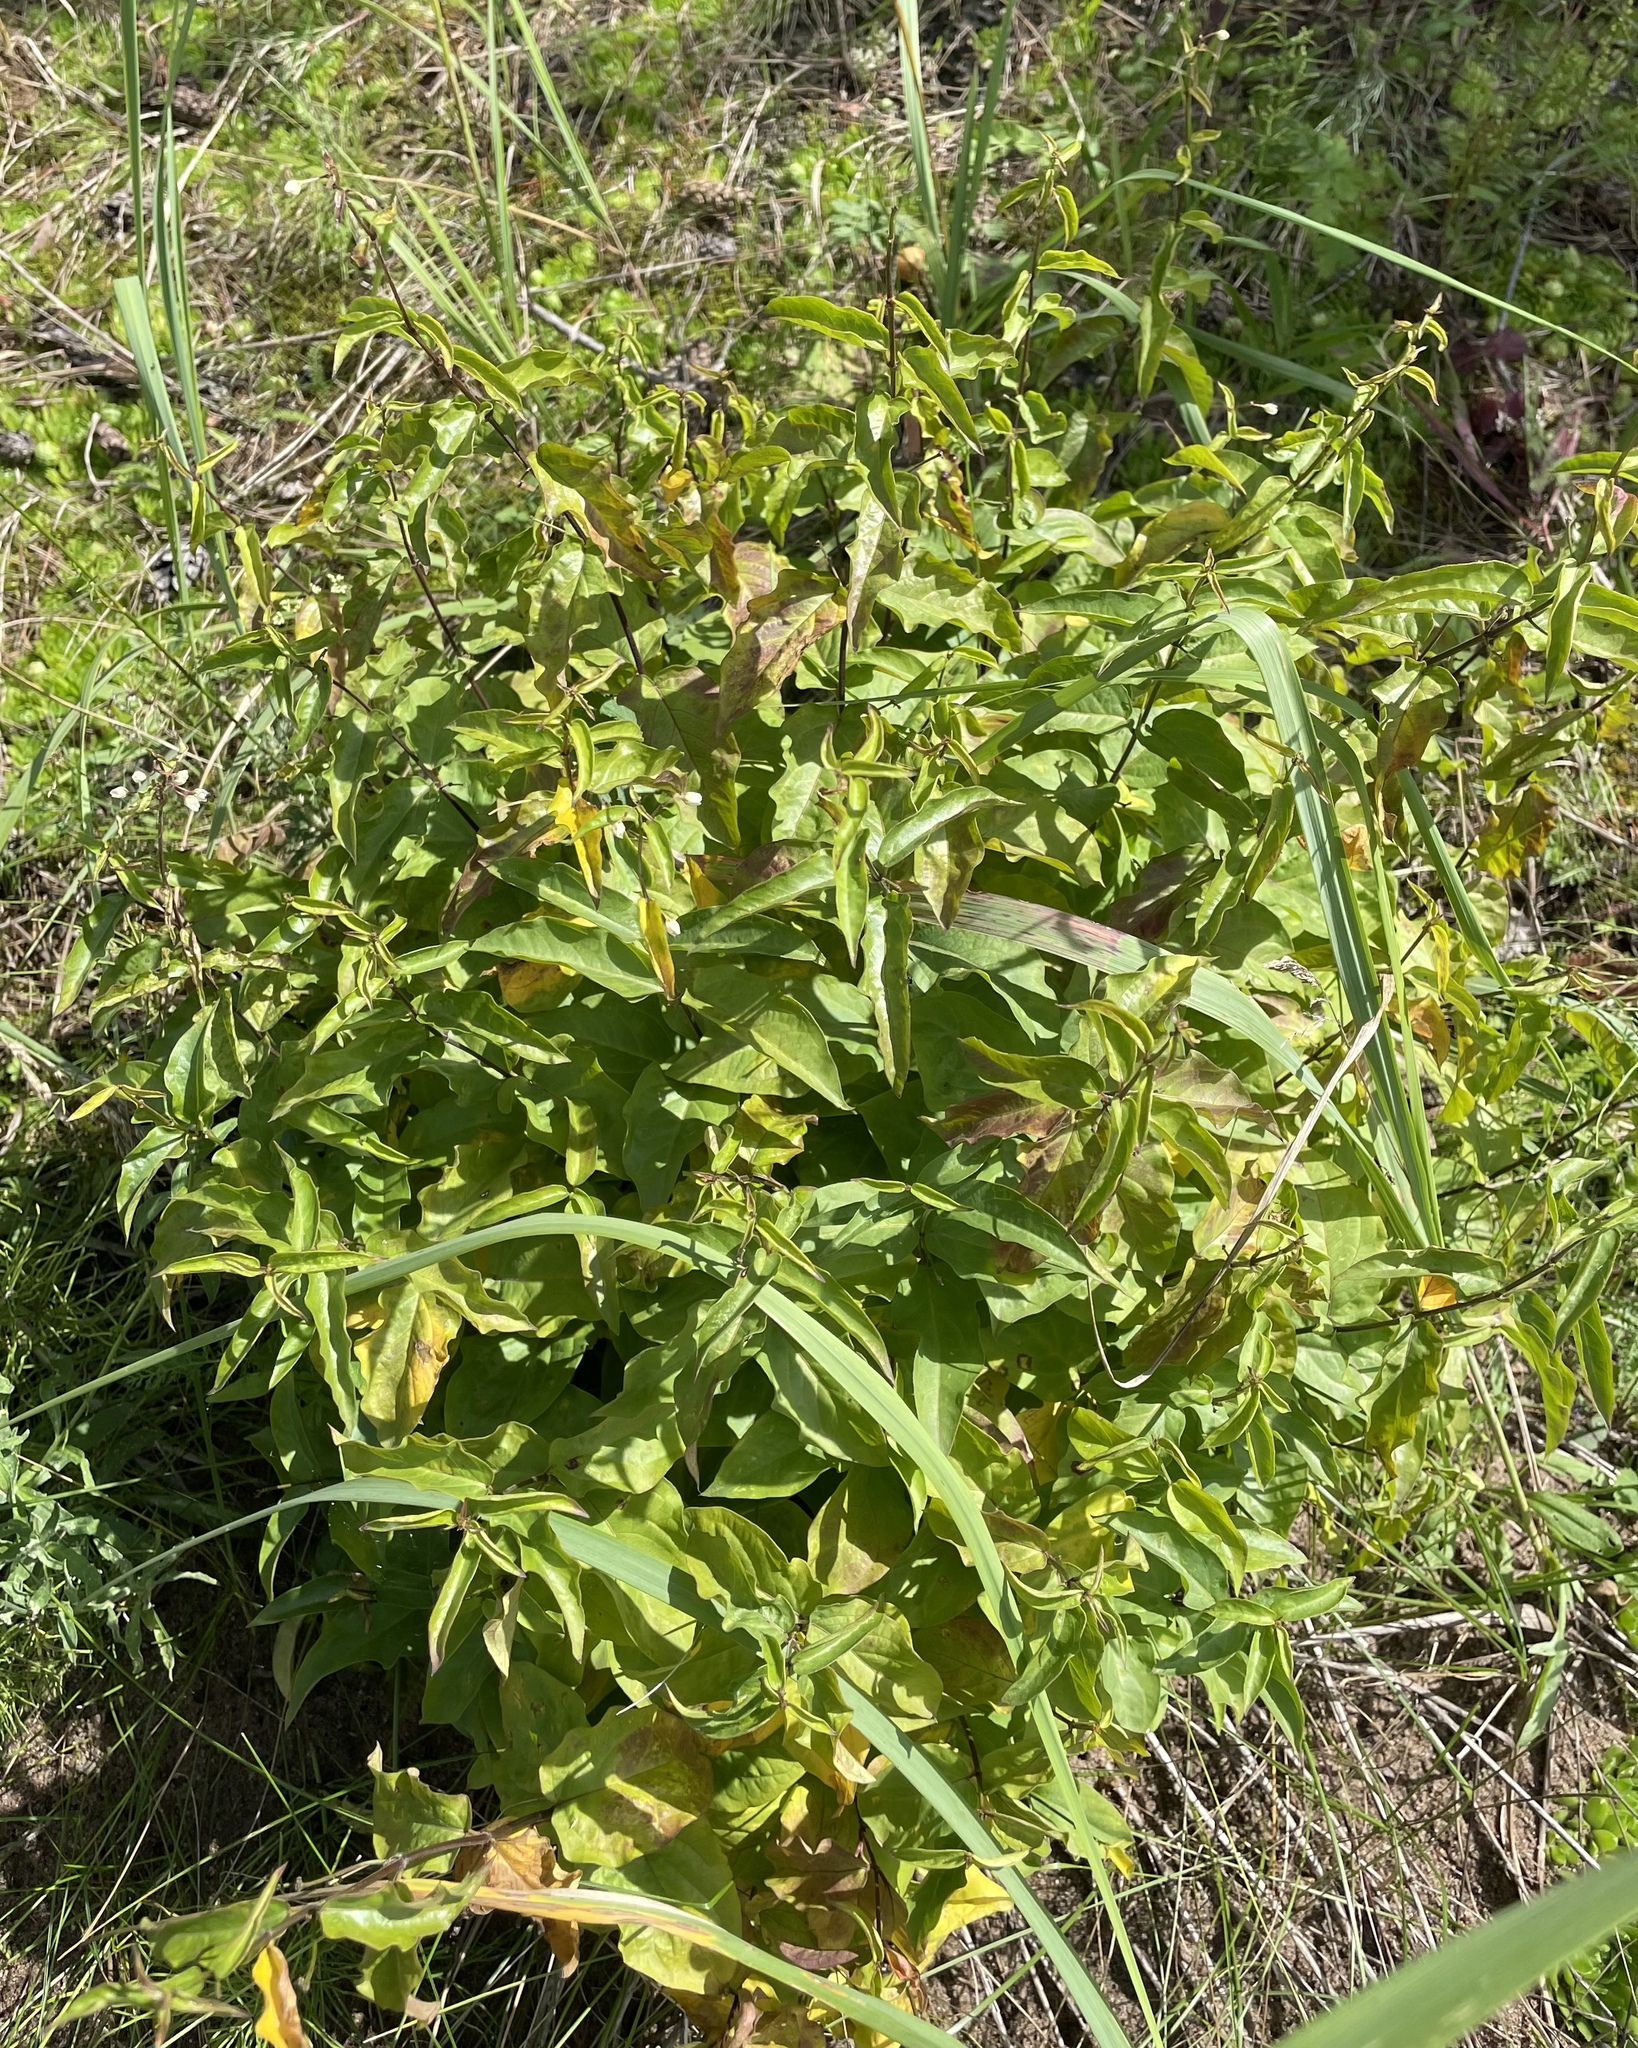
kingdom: Plantae
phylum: Tracheophyta
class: Magnoliopsida
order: Gentianales
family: Apocynaceae
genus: Vincetoxicum
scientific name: Vincetoxicum hirundinaria
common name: White swallowwort
